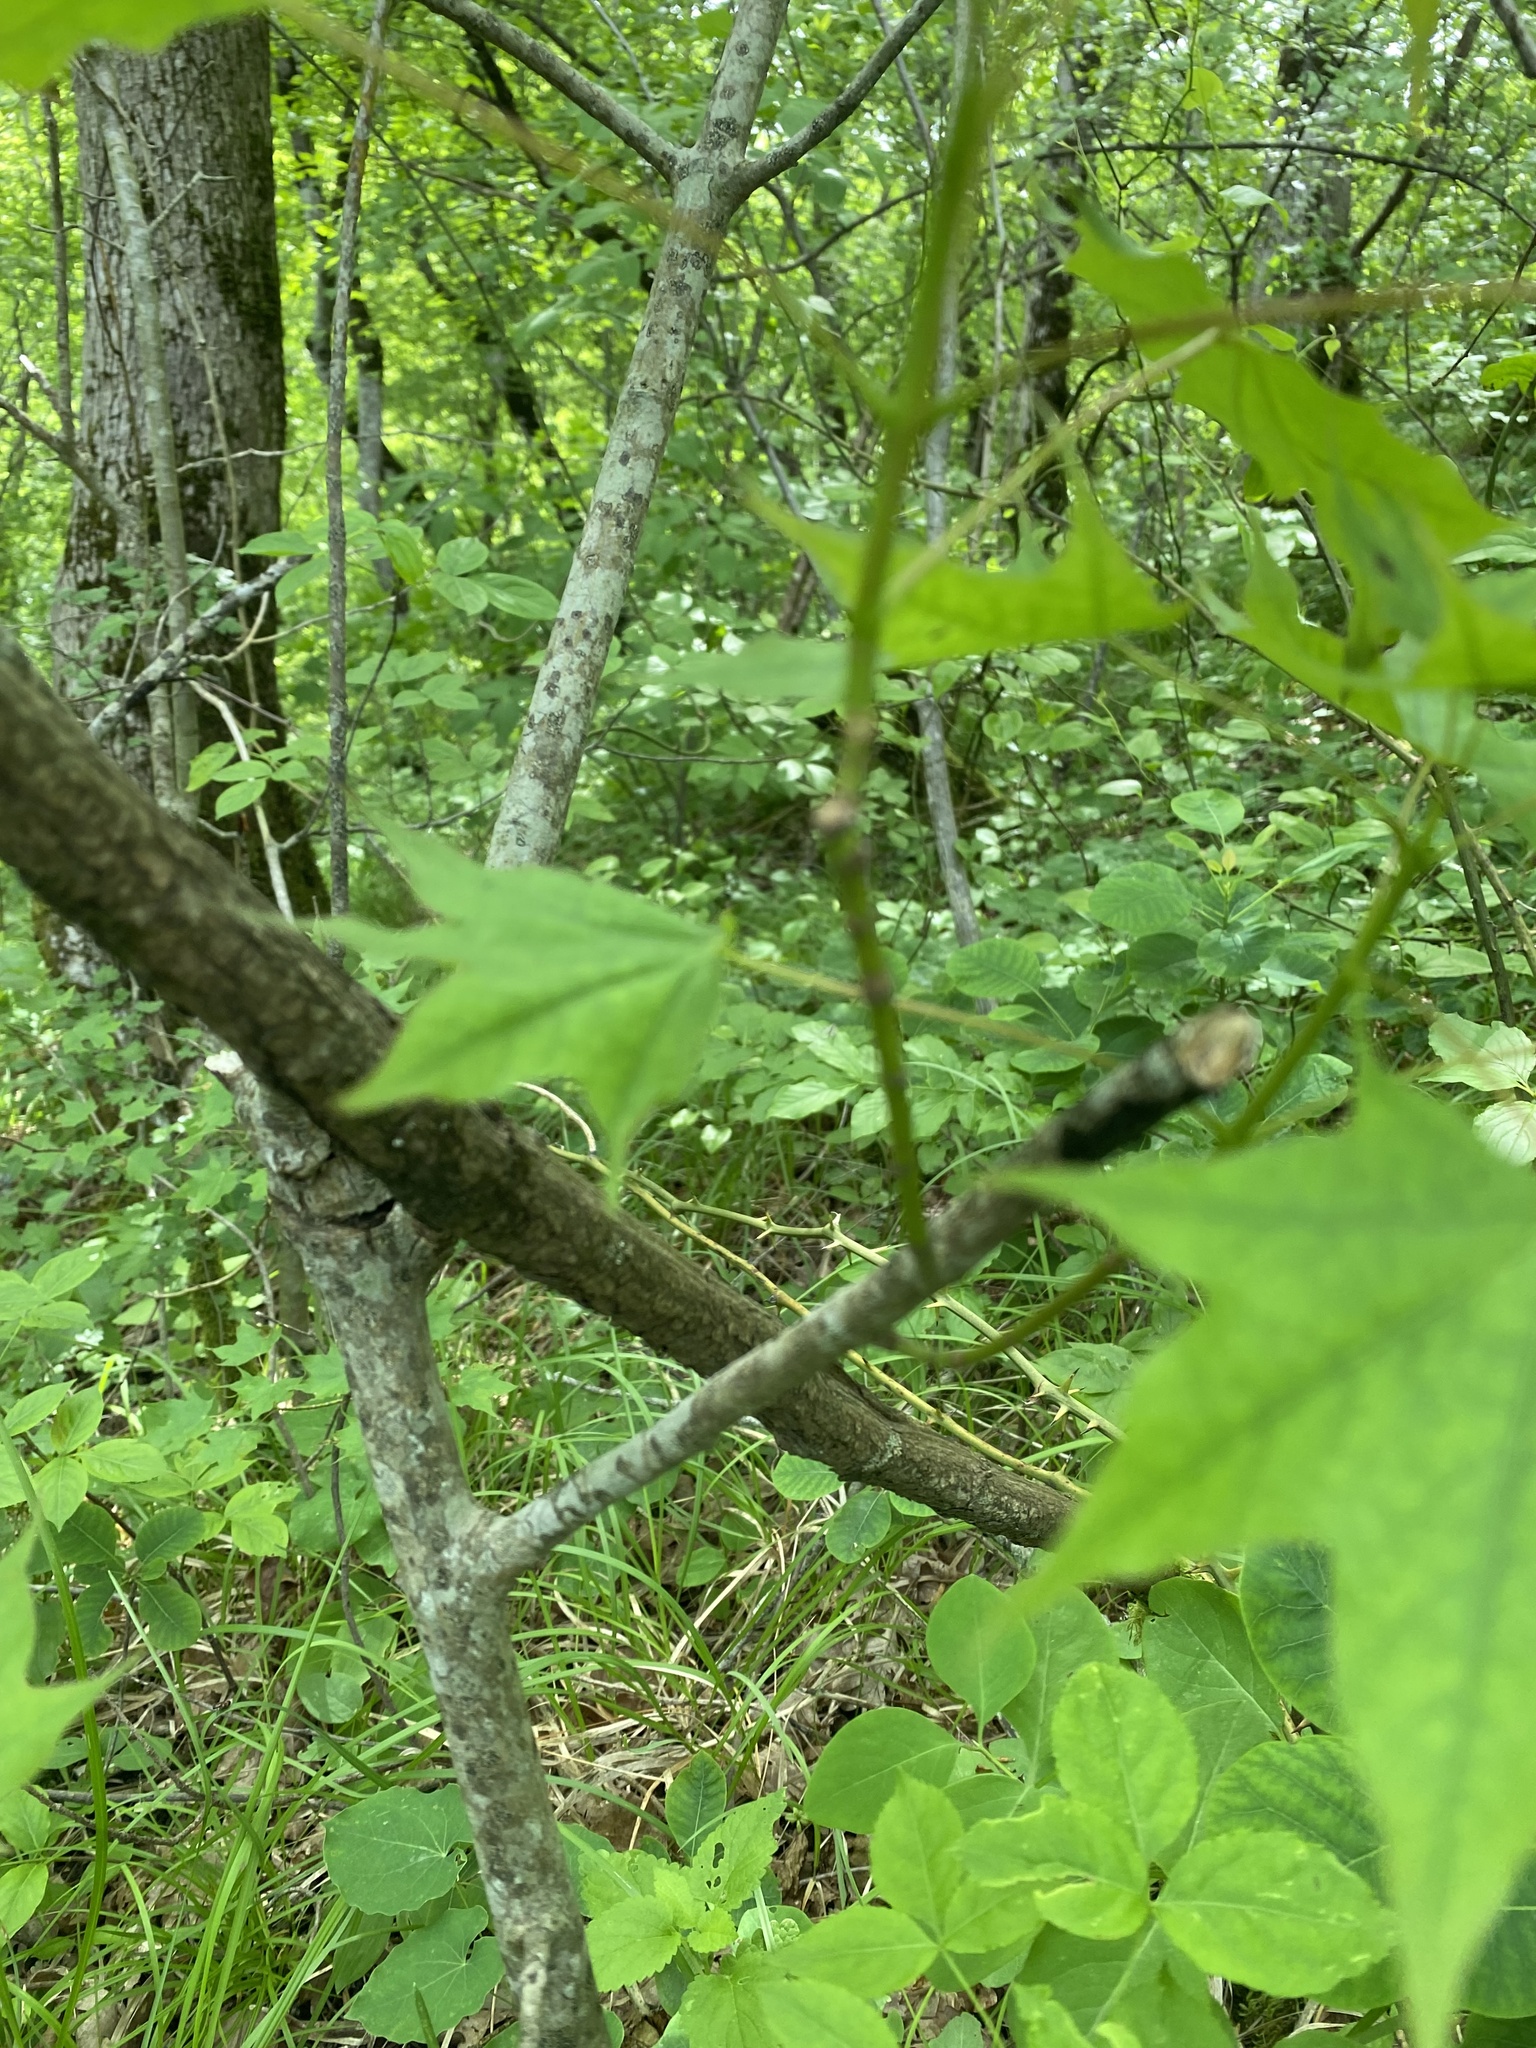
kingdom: Plantae
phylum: Tracheophyta
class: Magnoliopsida
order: Sapindales
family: Sapindaceae
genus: Acer
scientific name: Acer platanoides
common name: Norway maple
